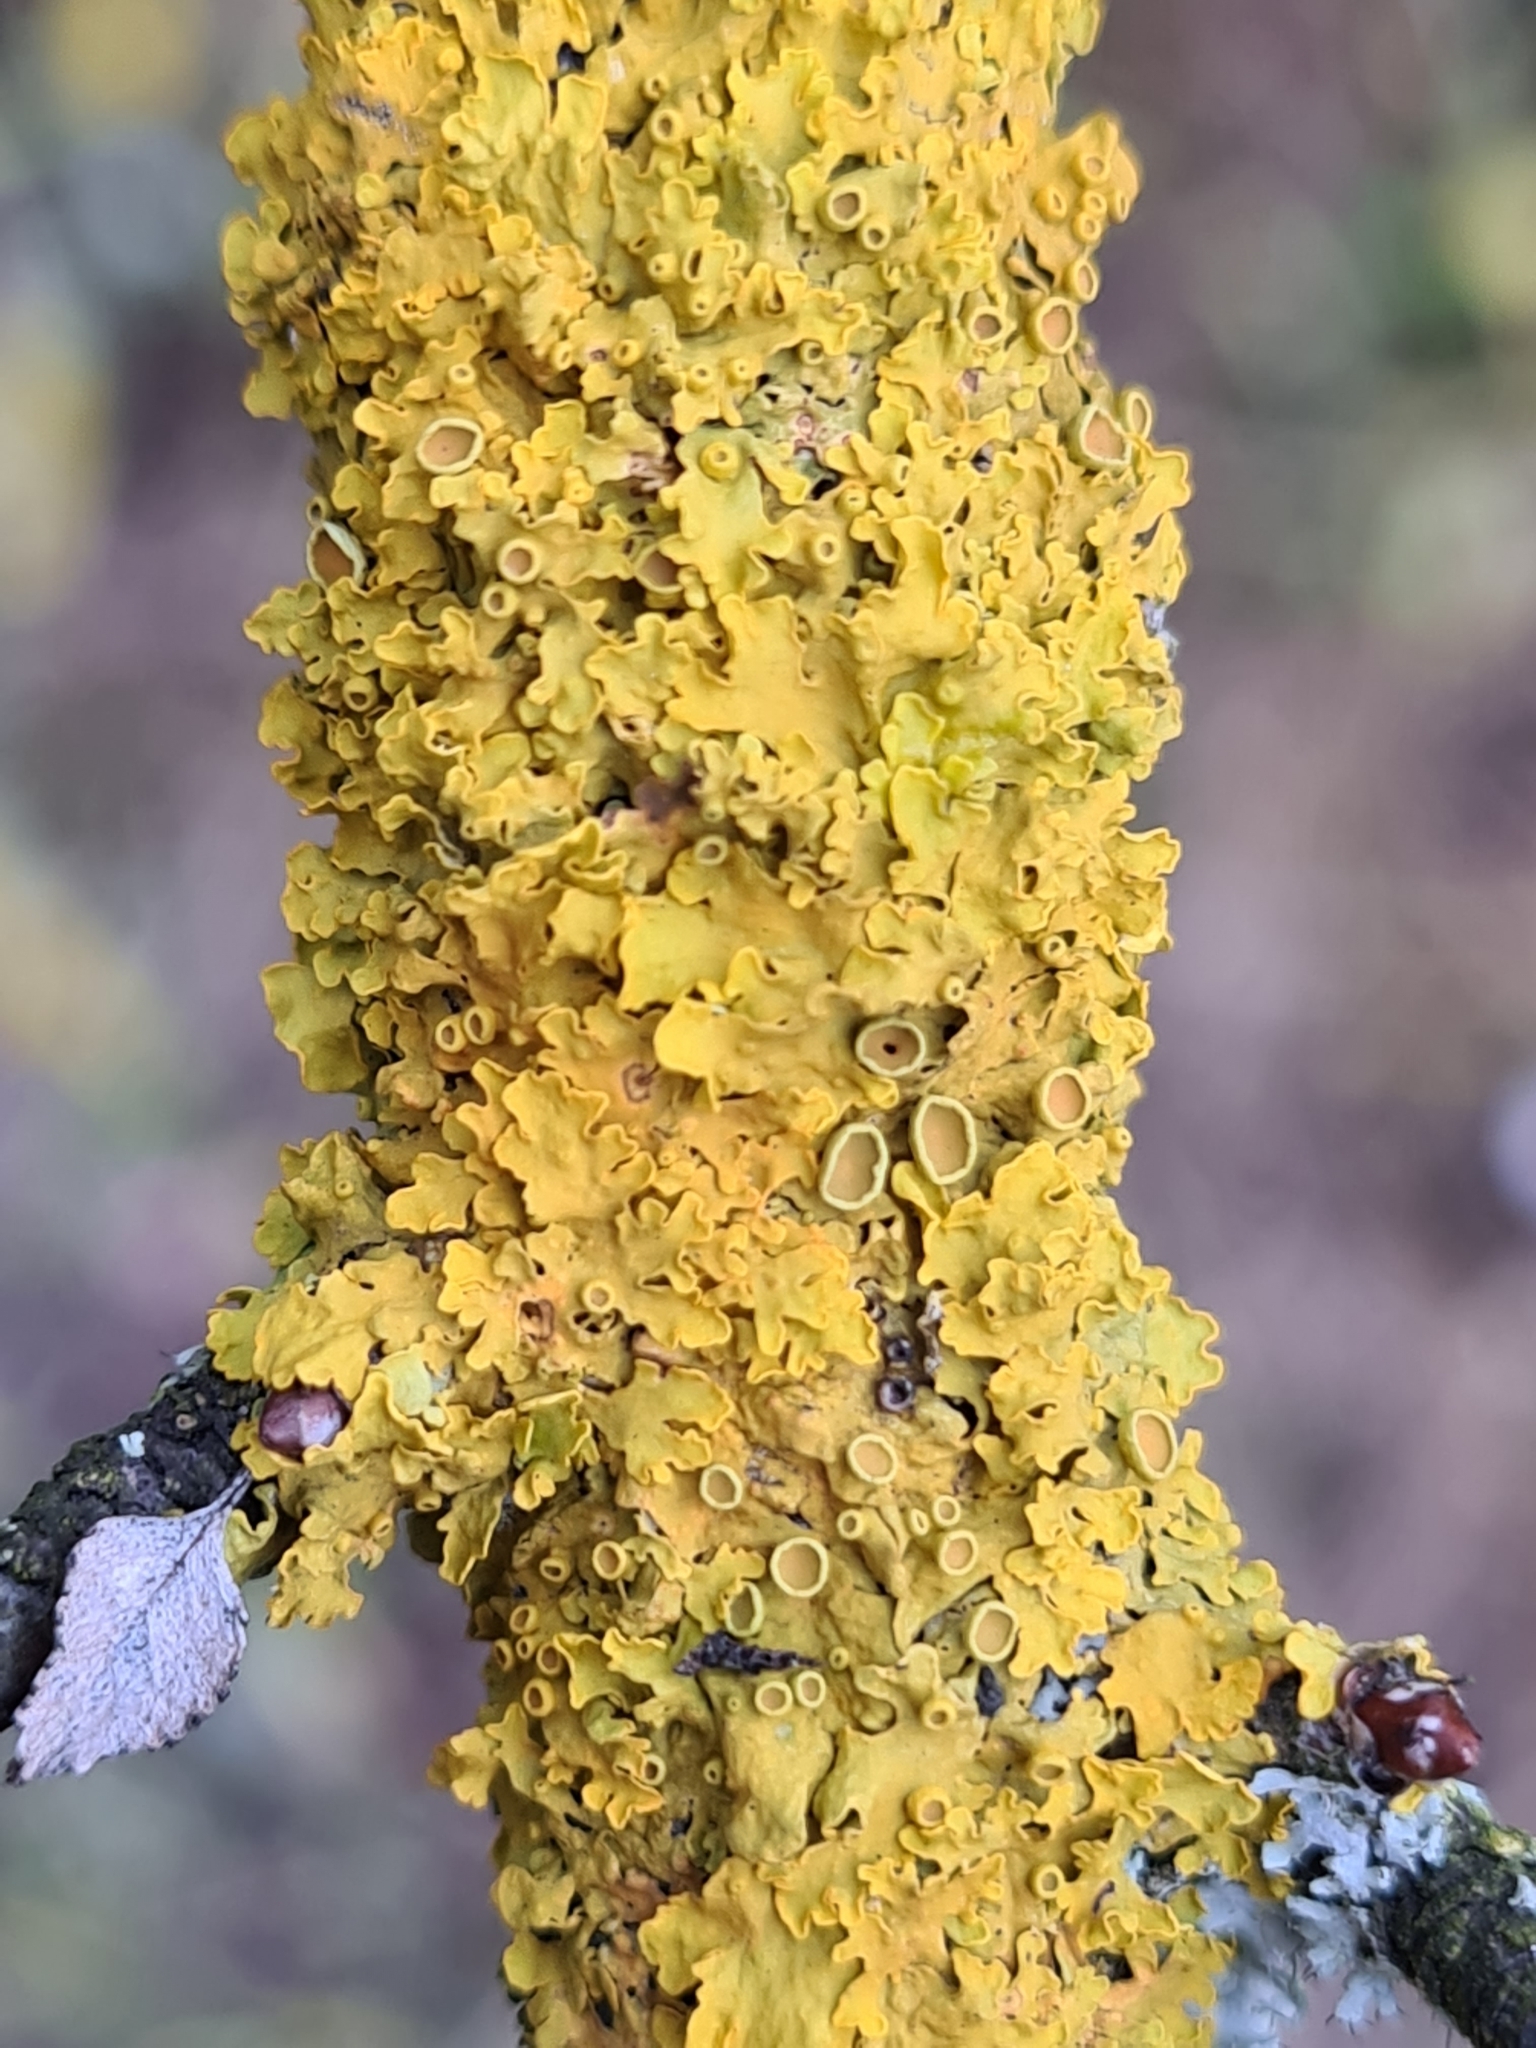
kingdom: Fungi
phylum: Ascomycota
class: Lecanoromycetes
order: Teloschistales
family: Teloschistaceae
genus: Xanthoria
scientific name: Xanthoria parietina
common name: Common orange lichen
